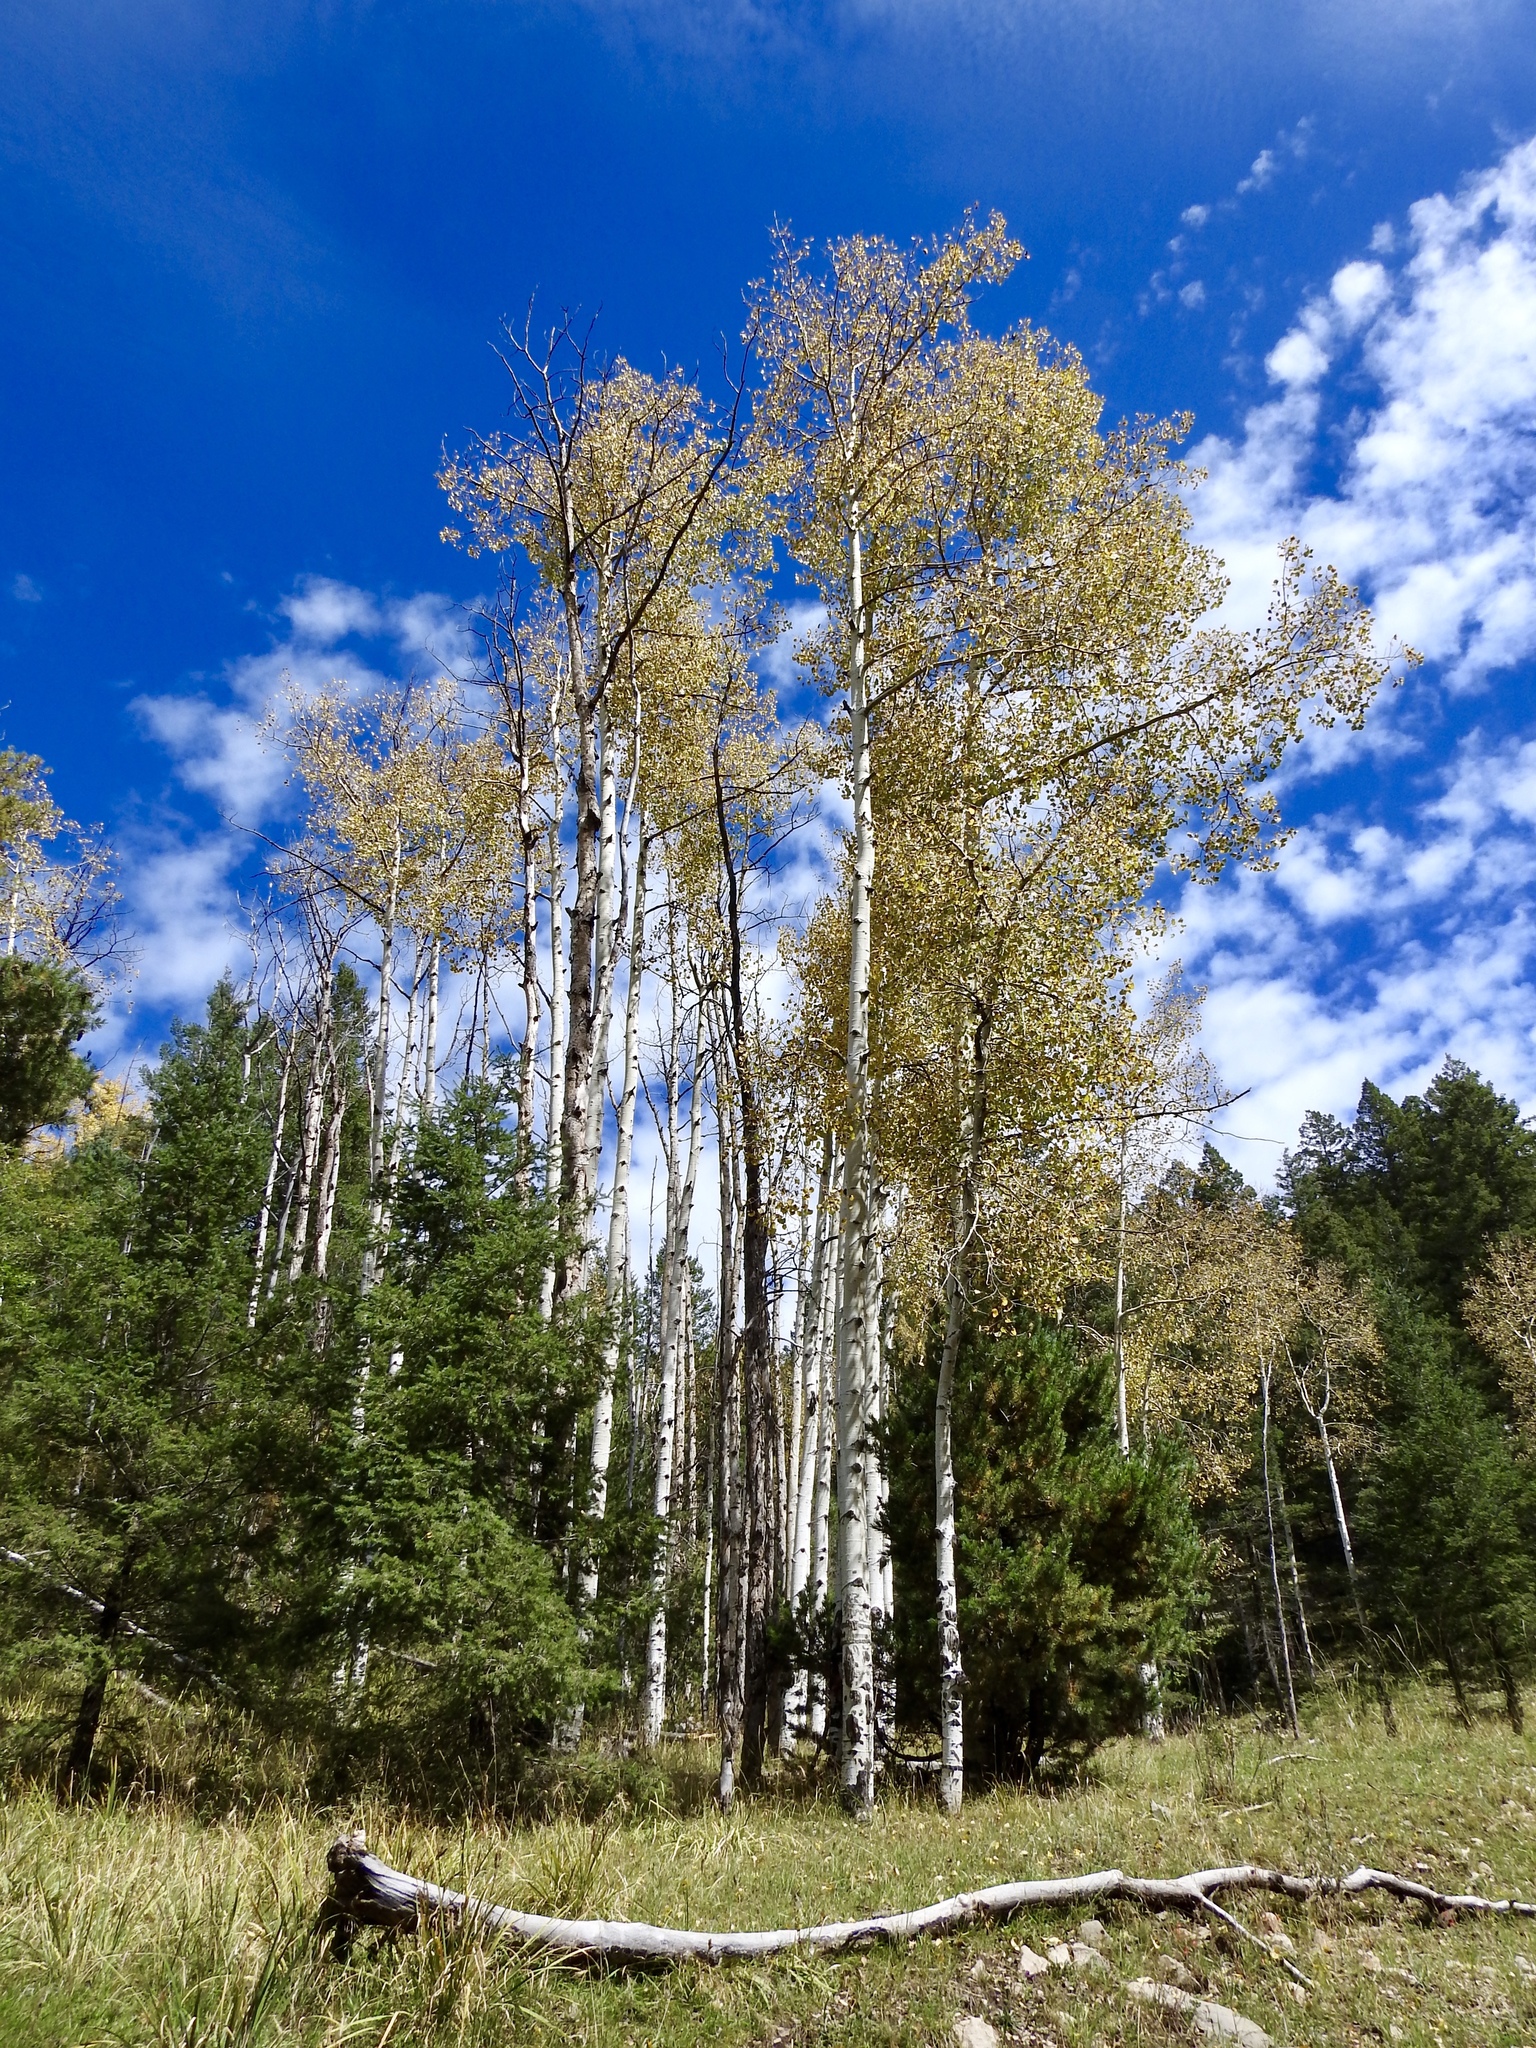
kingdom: Plantae
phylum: Tracheophyta
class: Magnoliopsida
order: Malpighiales
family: Salicaceae
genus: Populus
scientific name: Populus tremuloides
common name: Quaking aspen
